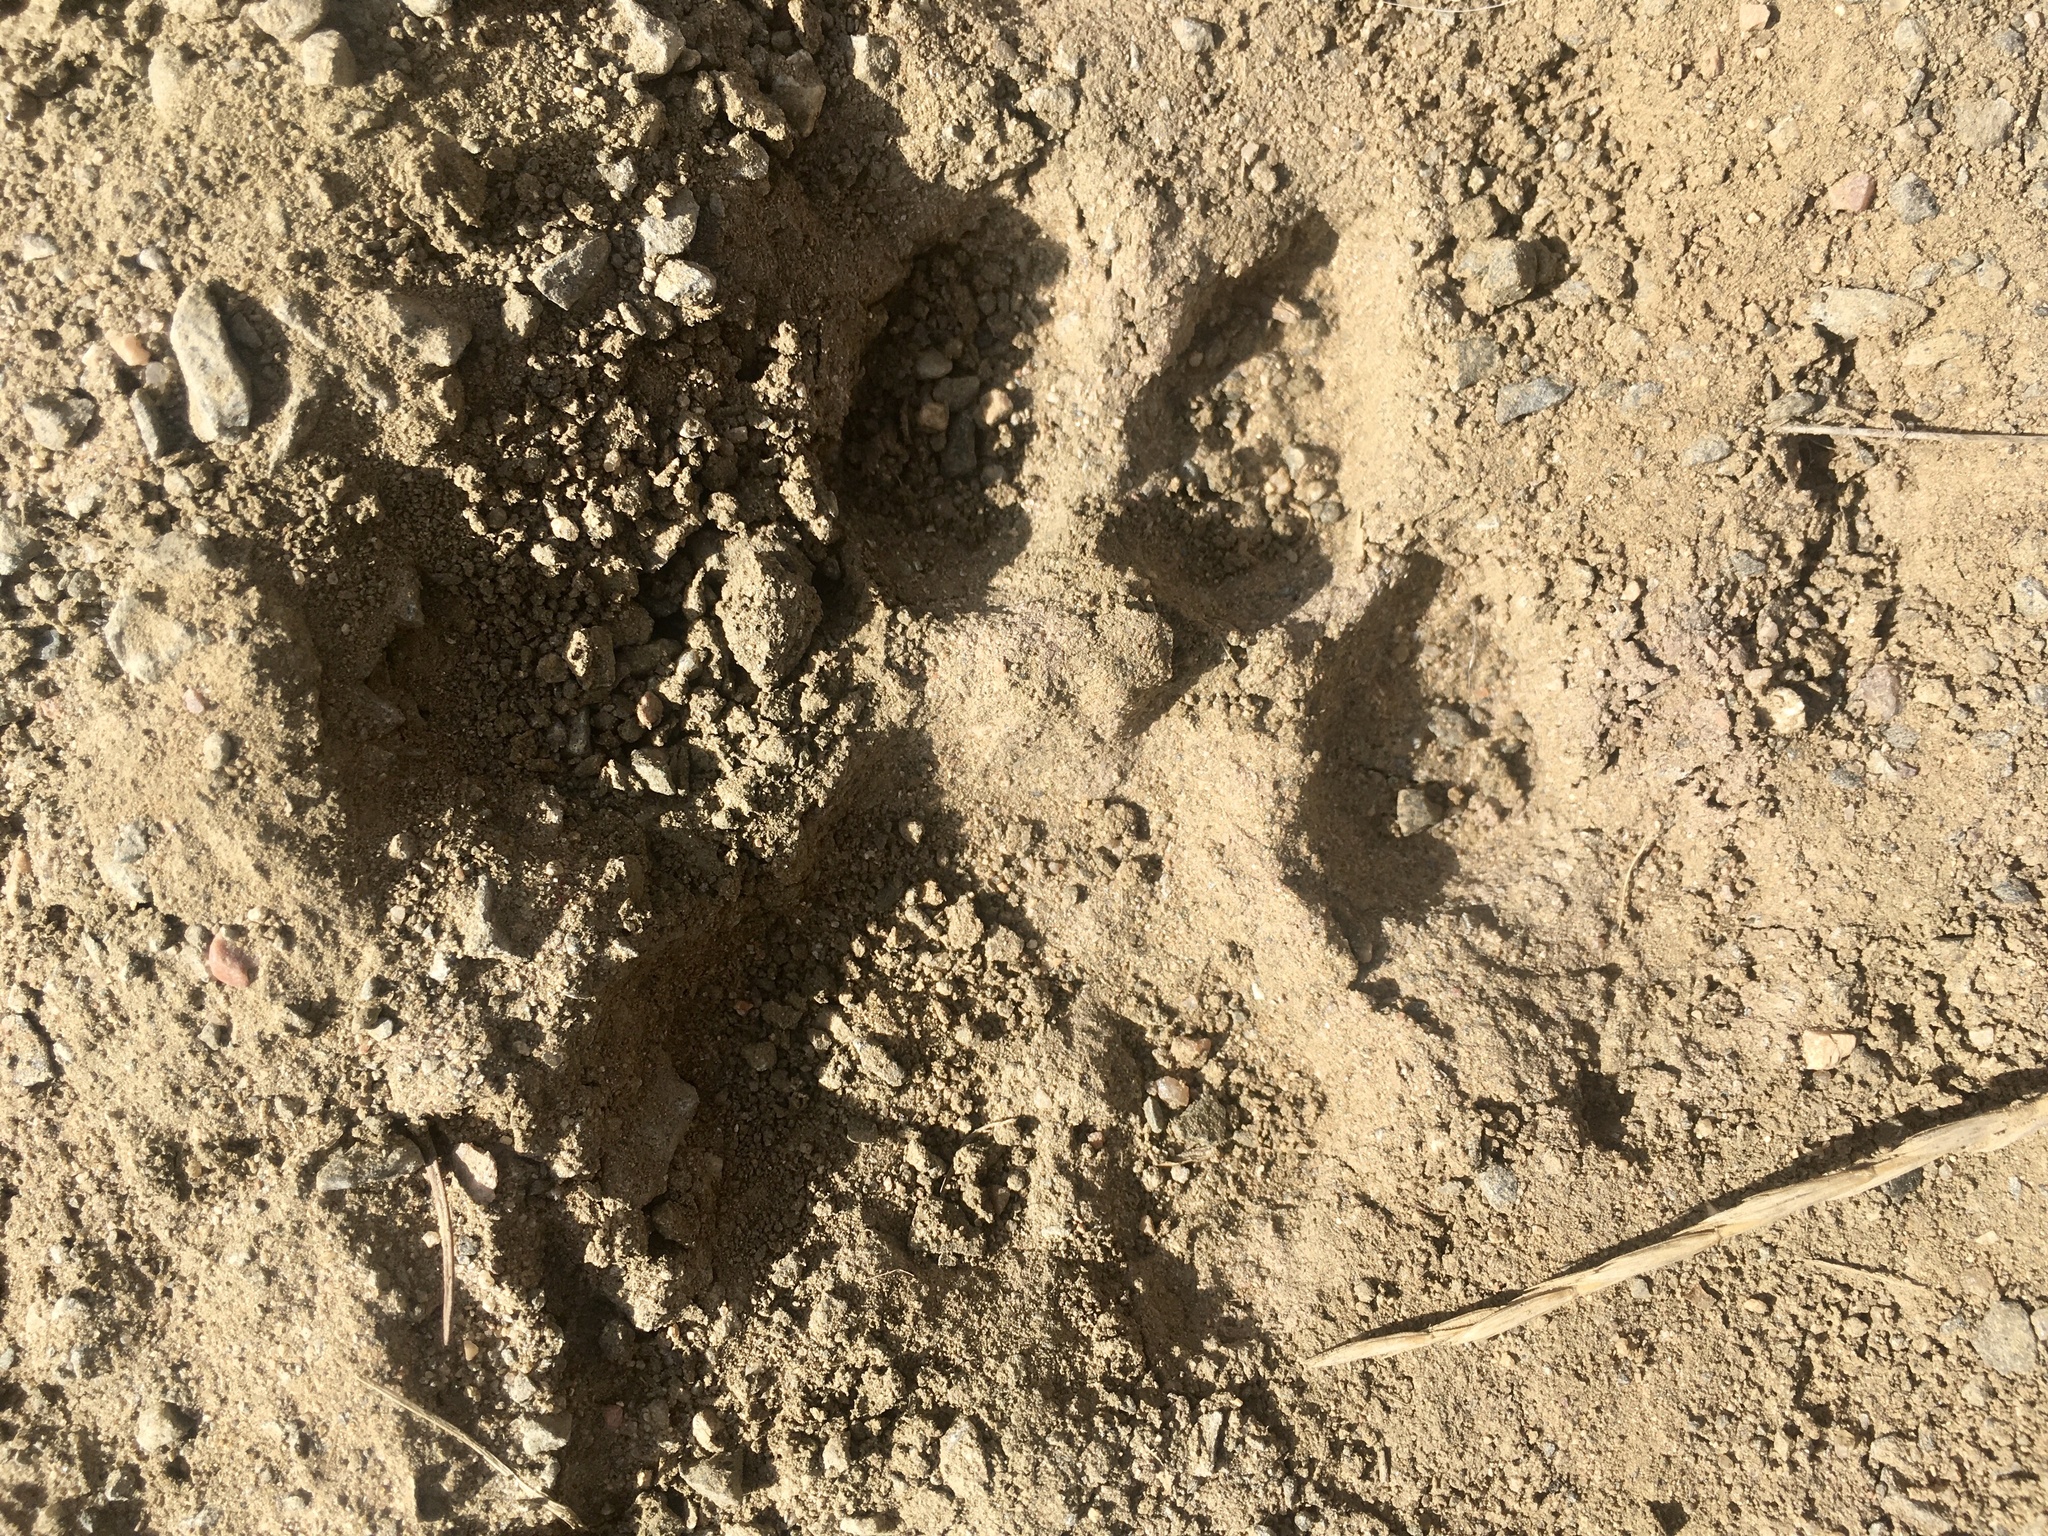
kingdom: Animalia
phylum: Chordata
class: Mammalia
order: Carnivora
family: Felidae
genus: Puma
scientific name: Puma concolor
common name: Puma
